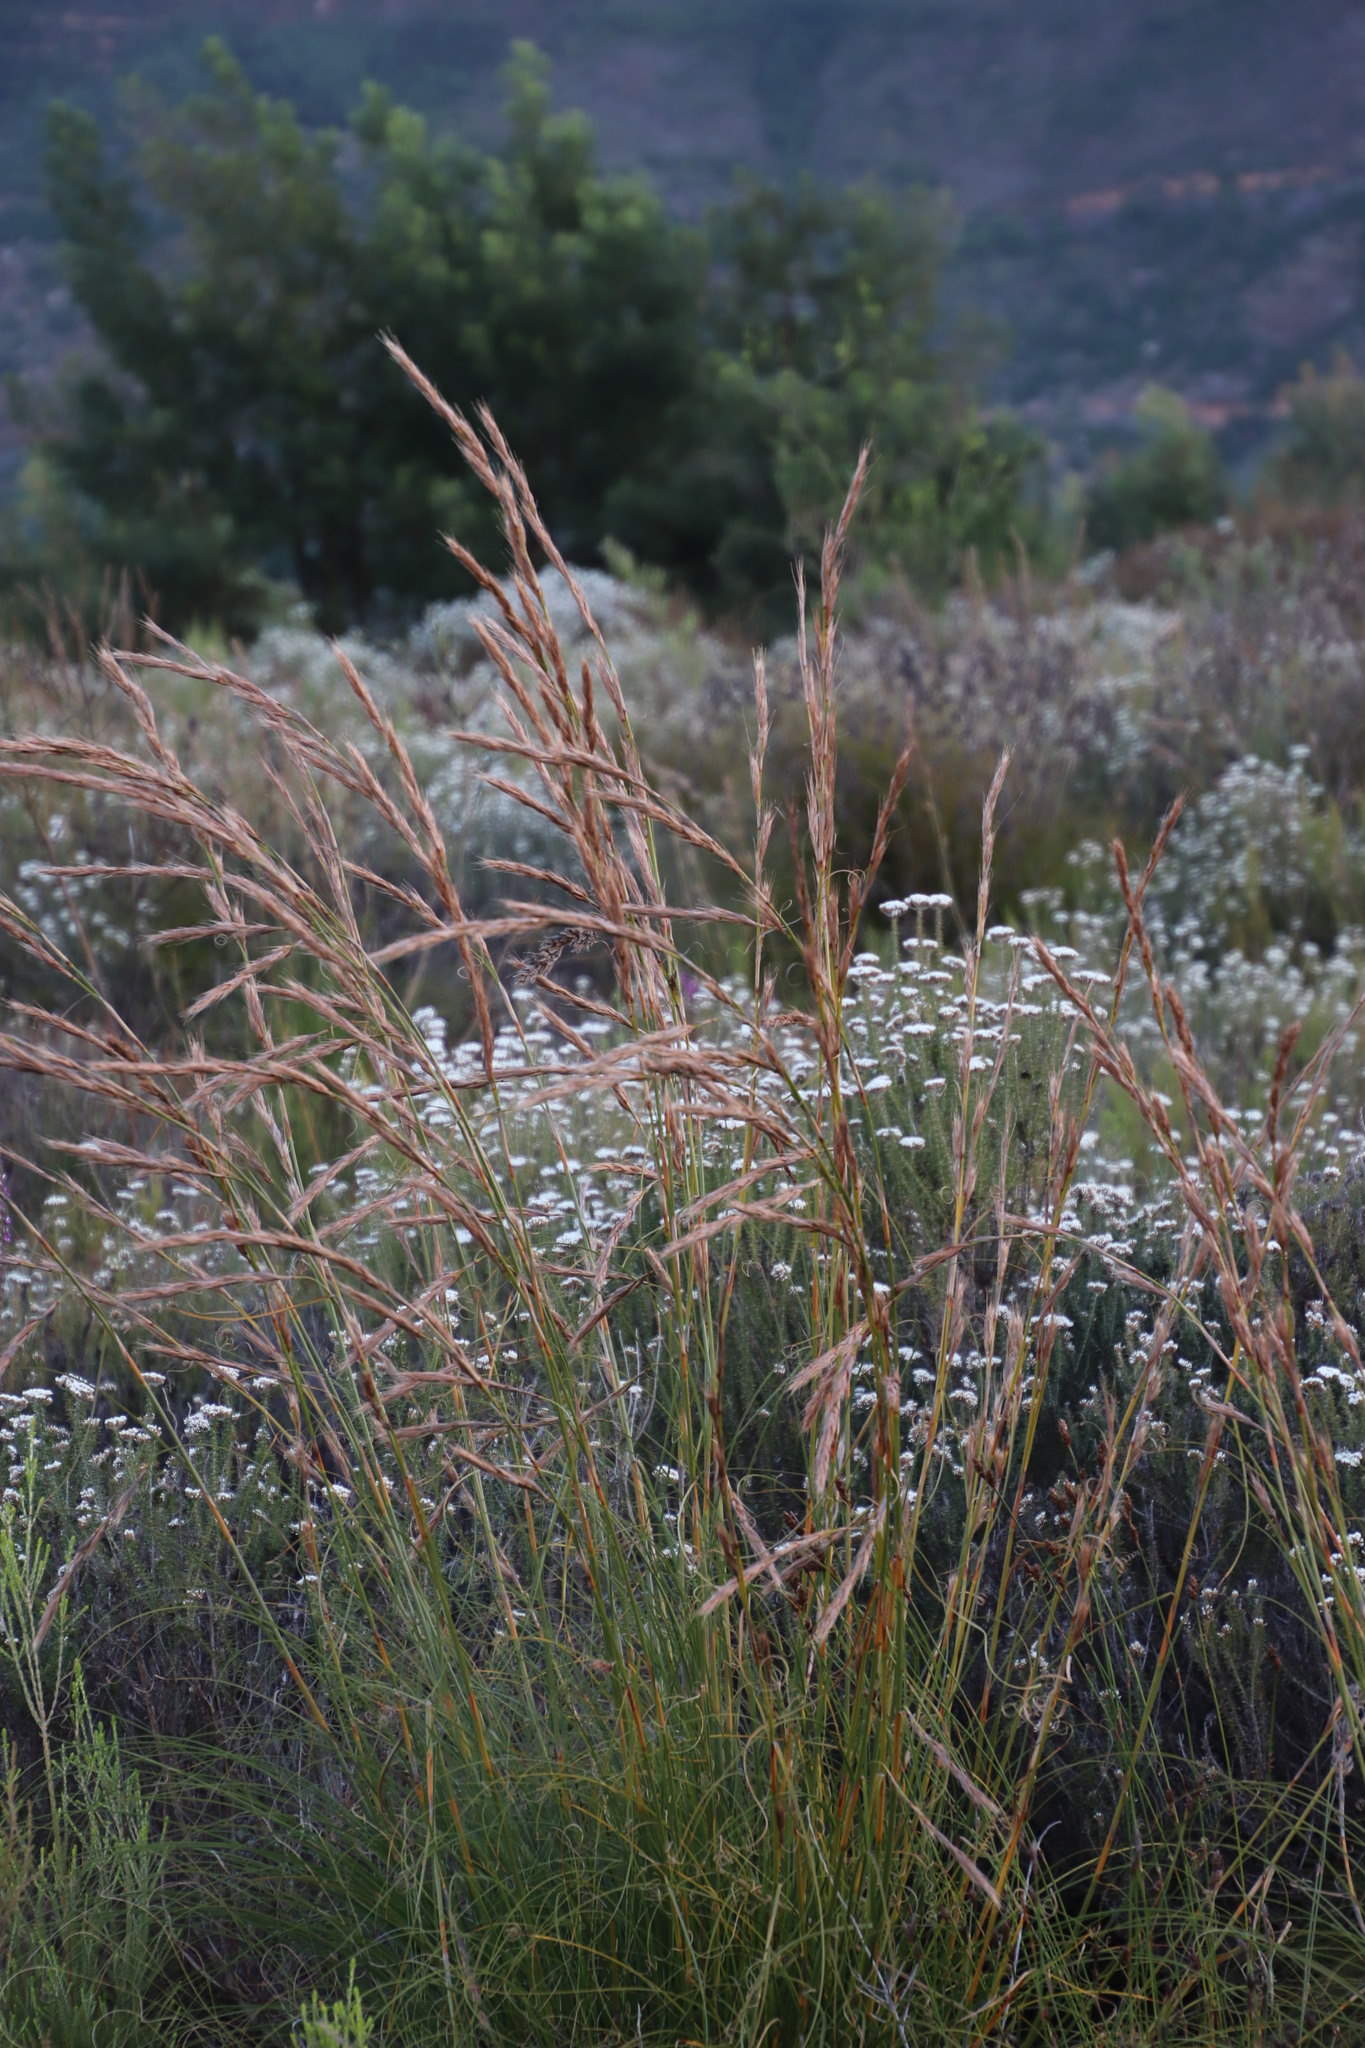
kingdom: Plantae
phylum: Tracheophyta
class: Liliopsida
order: Poales
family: Cyperaceae
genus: Tetraria
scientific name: Tetraria bromoides
